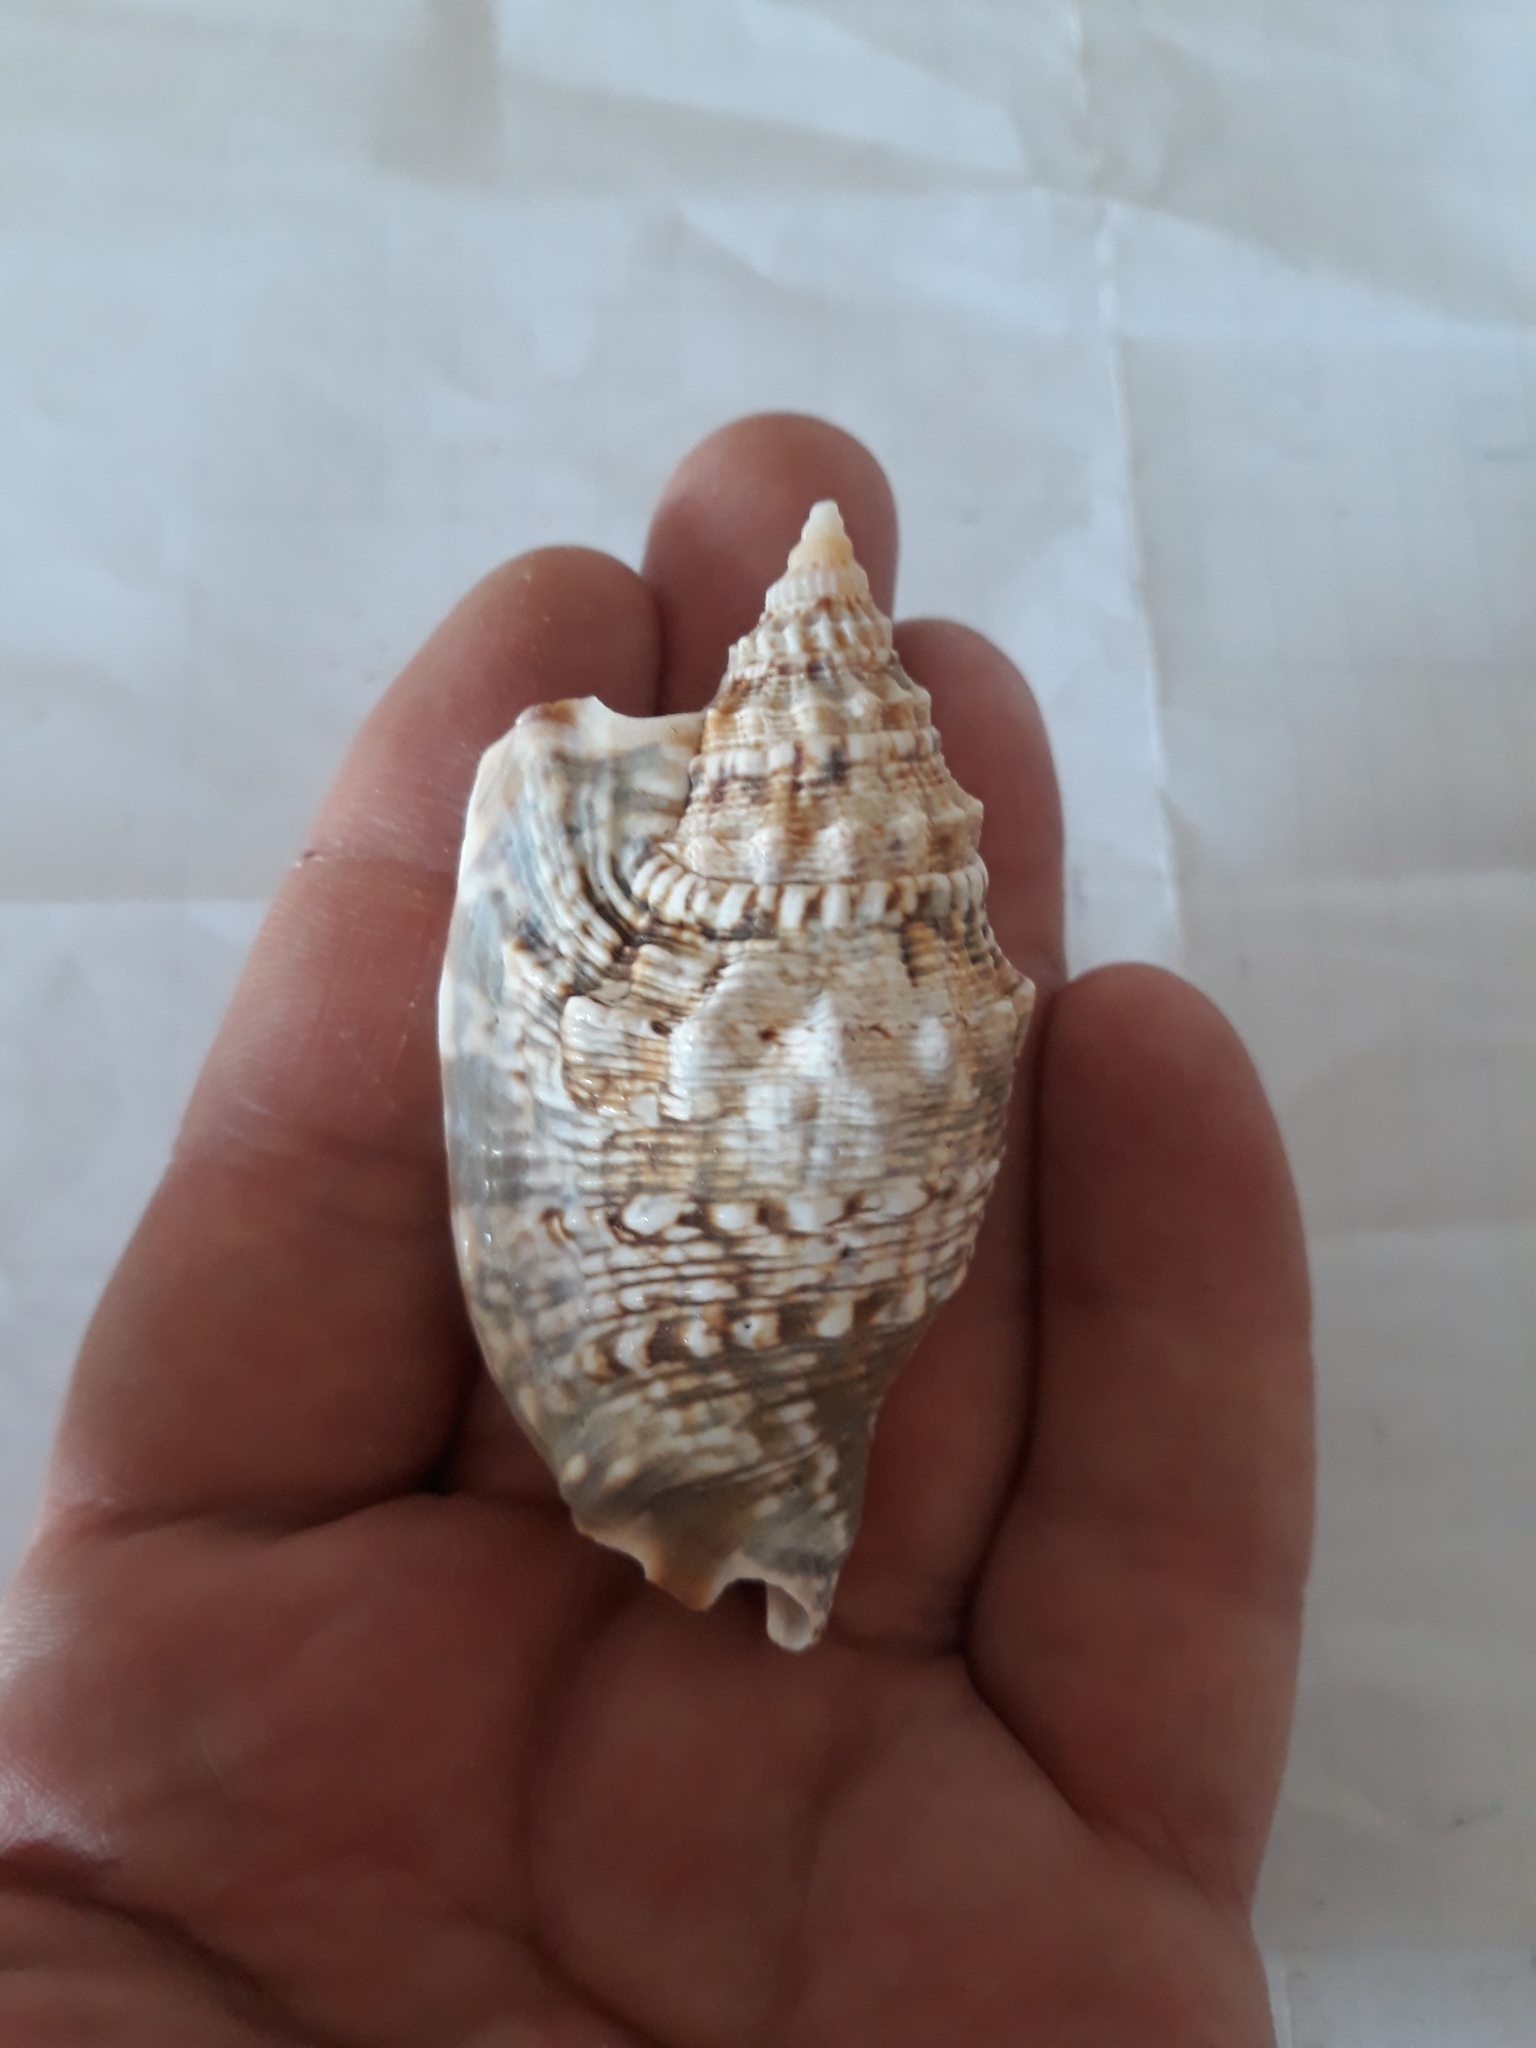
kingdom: Animalia
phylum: Mollusca
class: Gastropoda
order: Littorinimorpha
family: Strombidae
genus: Euprotomus
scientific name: Euprotomus aurisdianae
